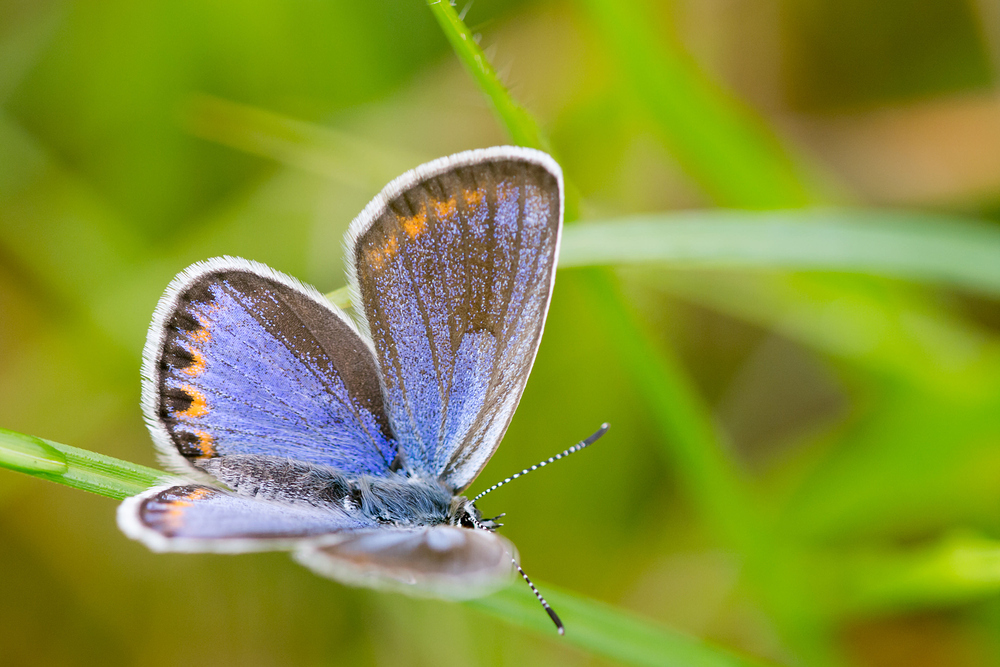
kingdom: Animalia
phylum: Arthropoda
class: Insecta
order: Lepidoptera
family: Lycaenidae
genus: Plebejus
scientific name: Plebejus argyrognomon
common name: Reverdin's blue
